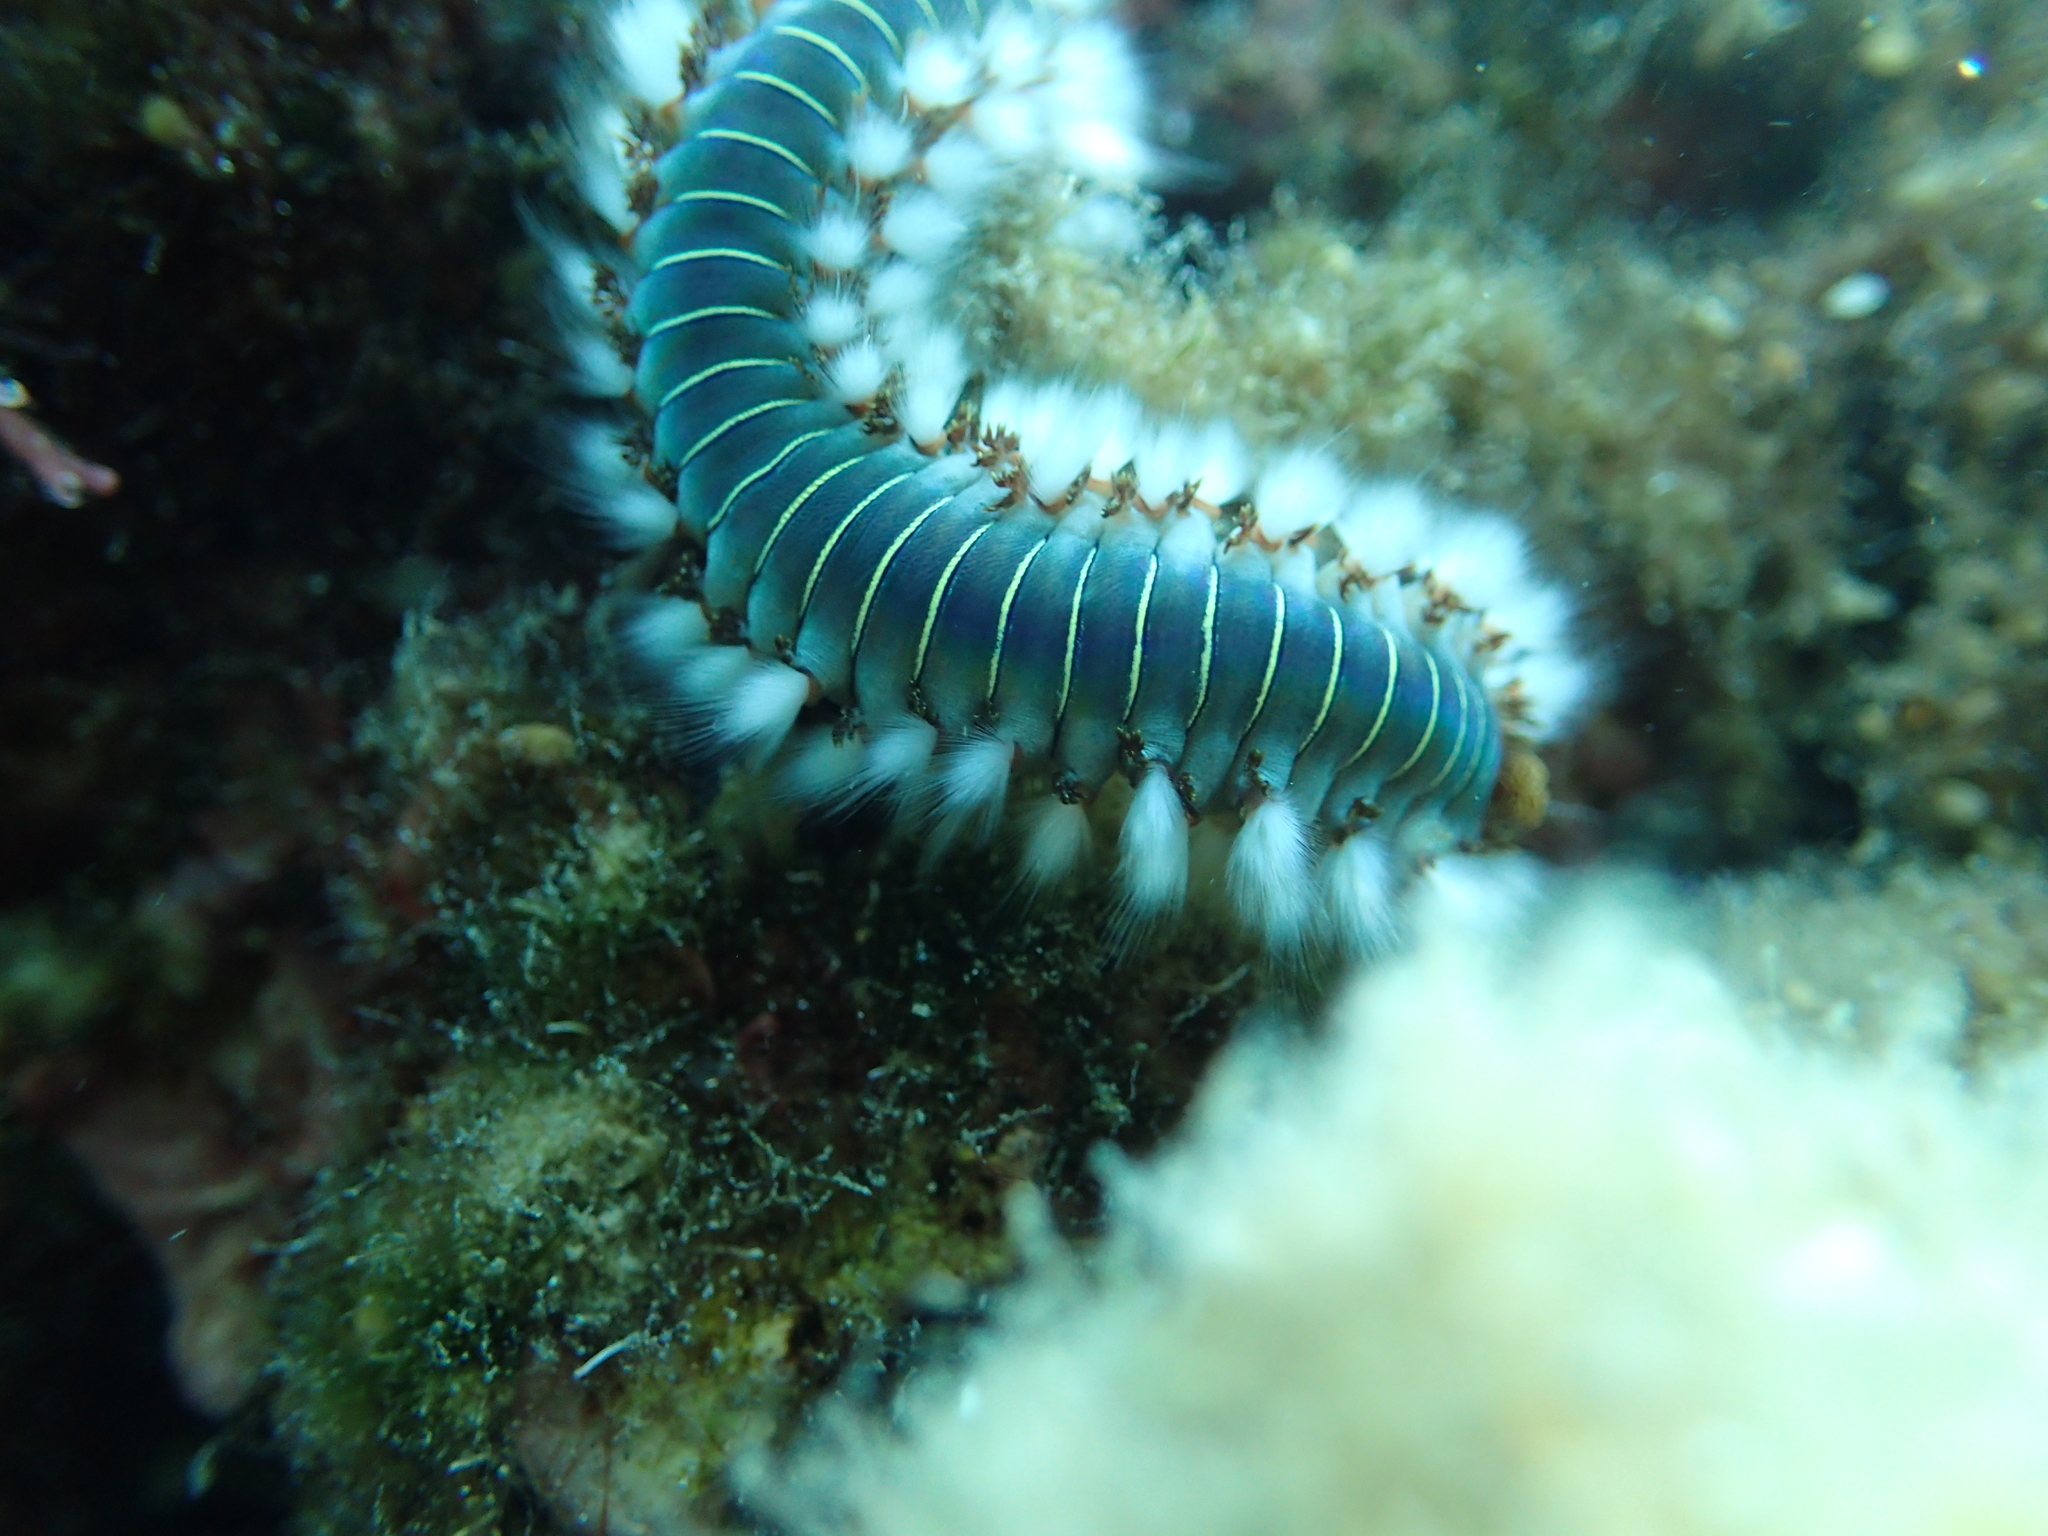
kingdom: Animalia
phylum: Annelida
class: Polychaeta
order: Amphinomida
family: Amphinomidae
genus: Hermodice
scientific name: Hermodice carunculata
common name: Bearded fireworm
